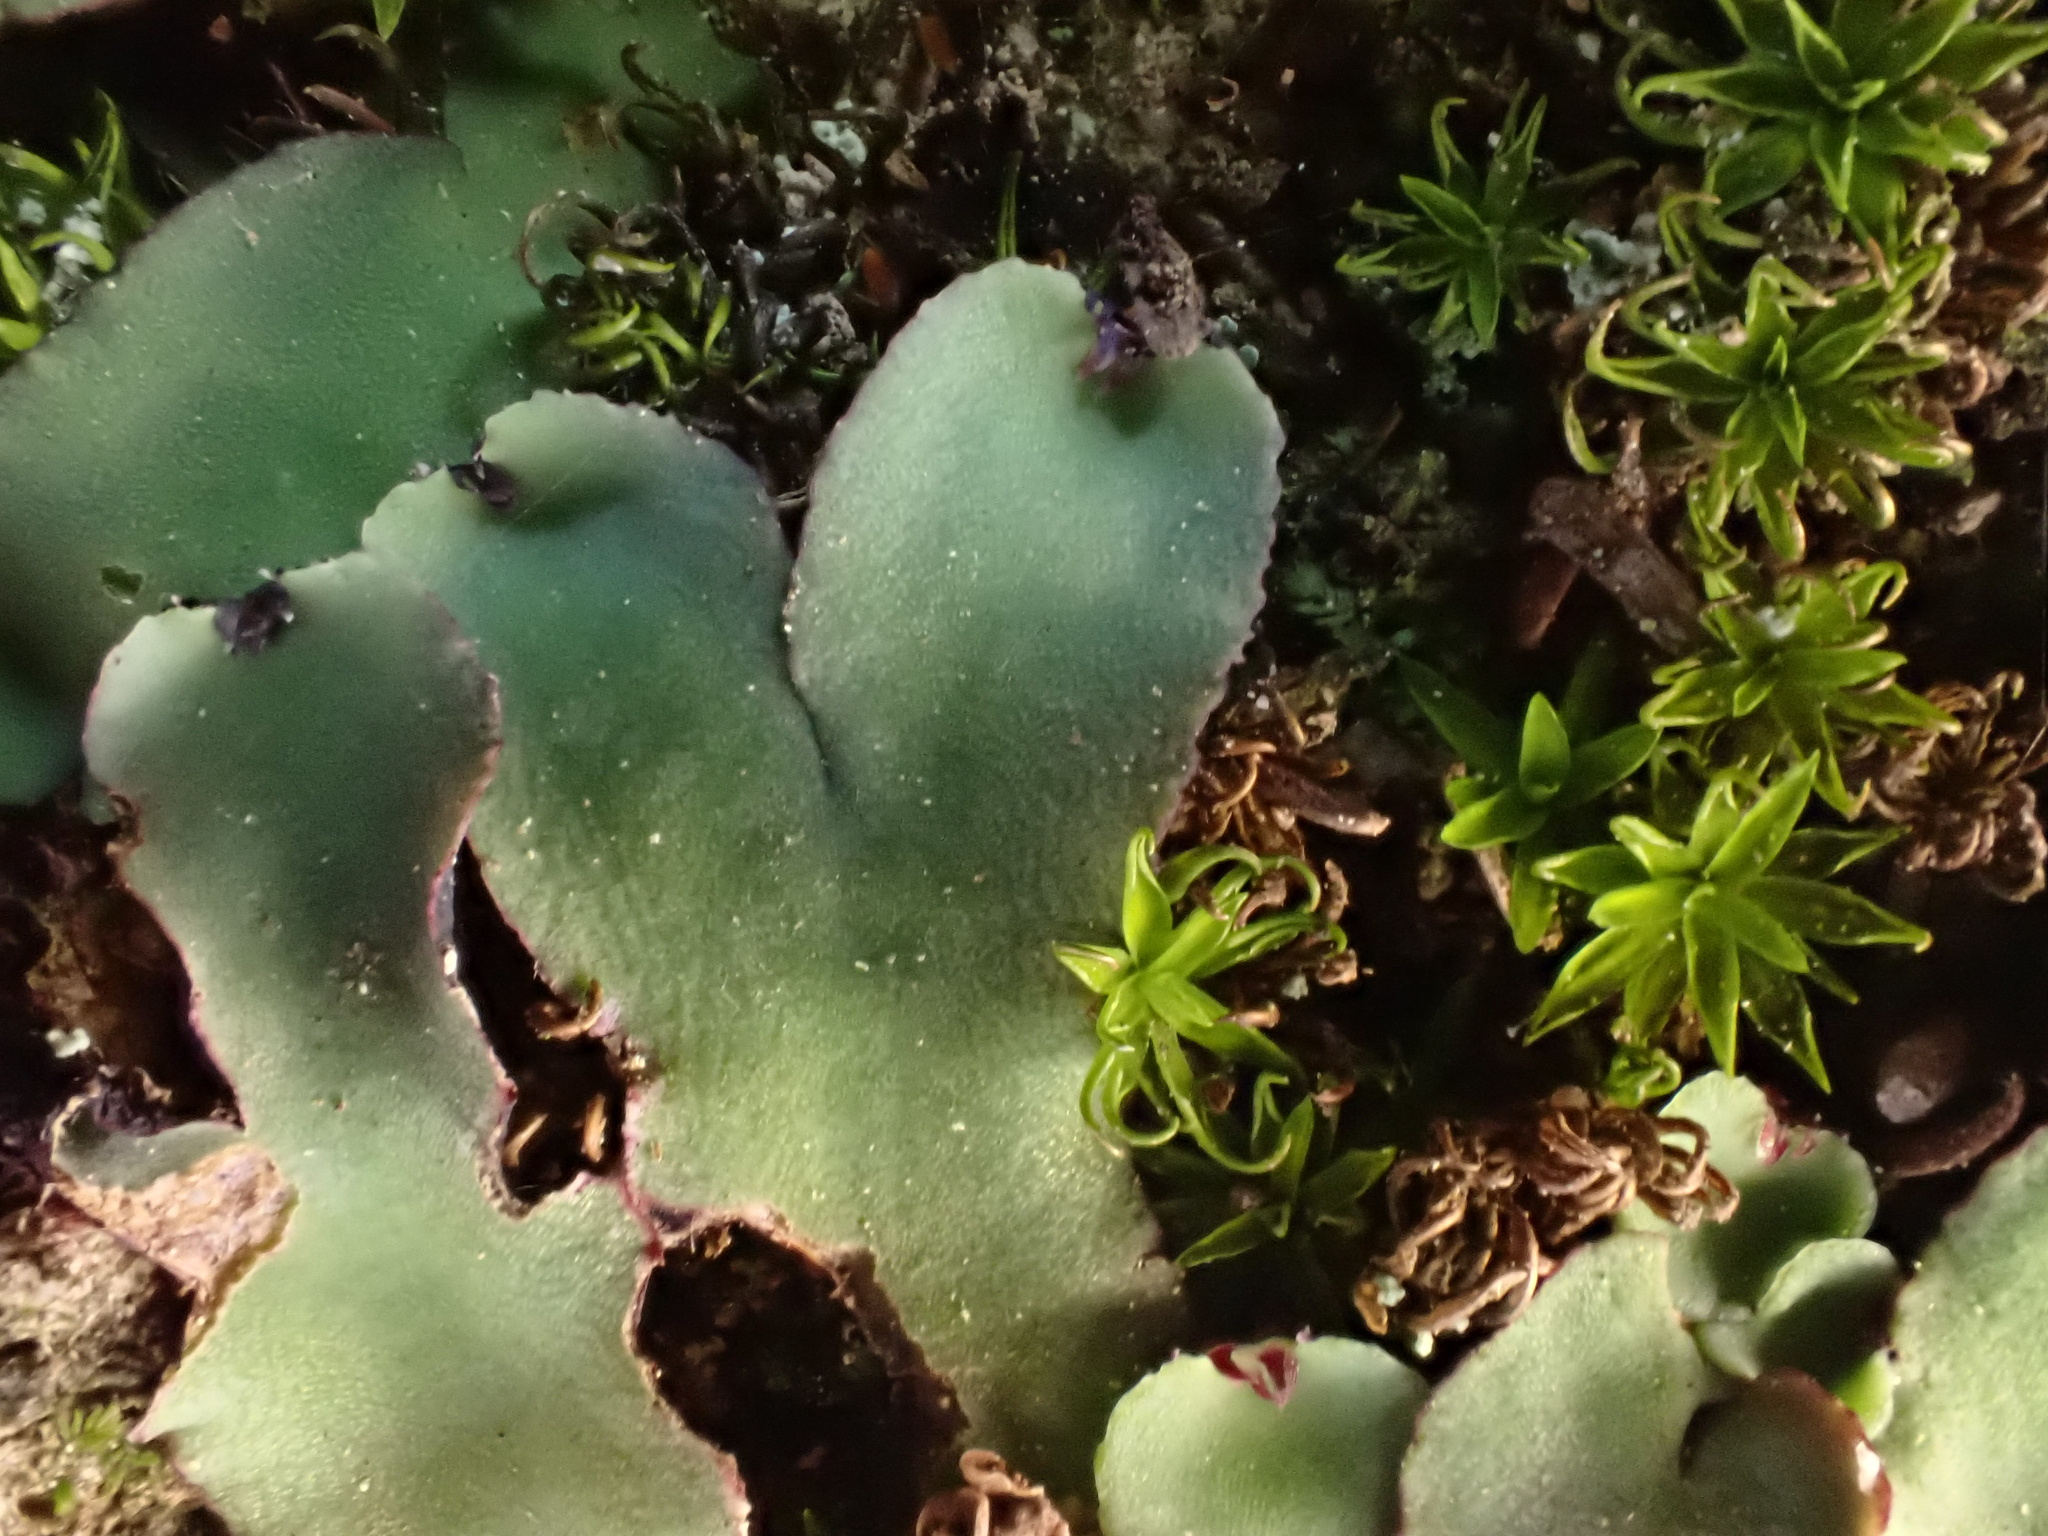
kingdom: Plantae
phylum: Marchantiophyta
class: Marchantiopsida
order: Marchantiales
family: Aytoniaceae
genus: Plagiochasma
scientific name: Plagiochasma rupestre
